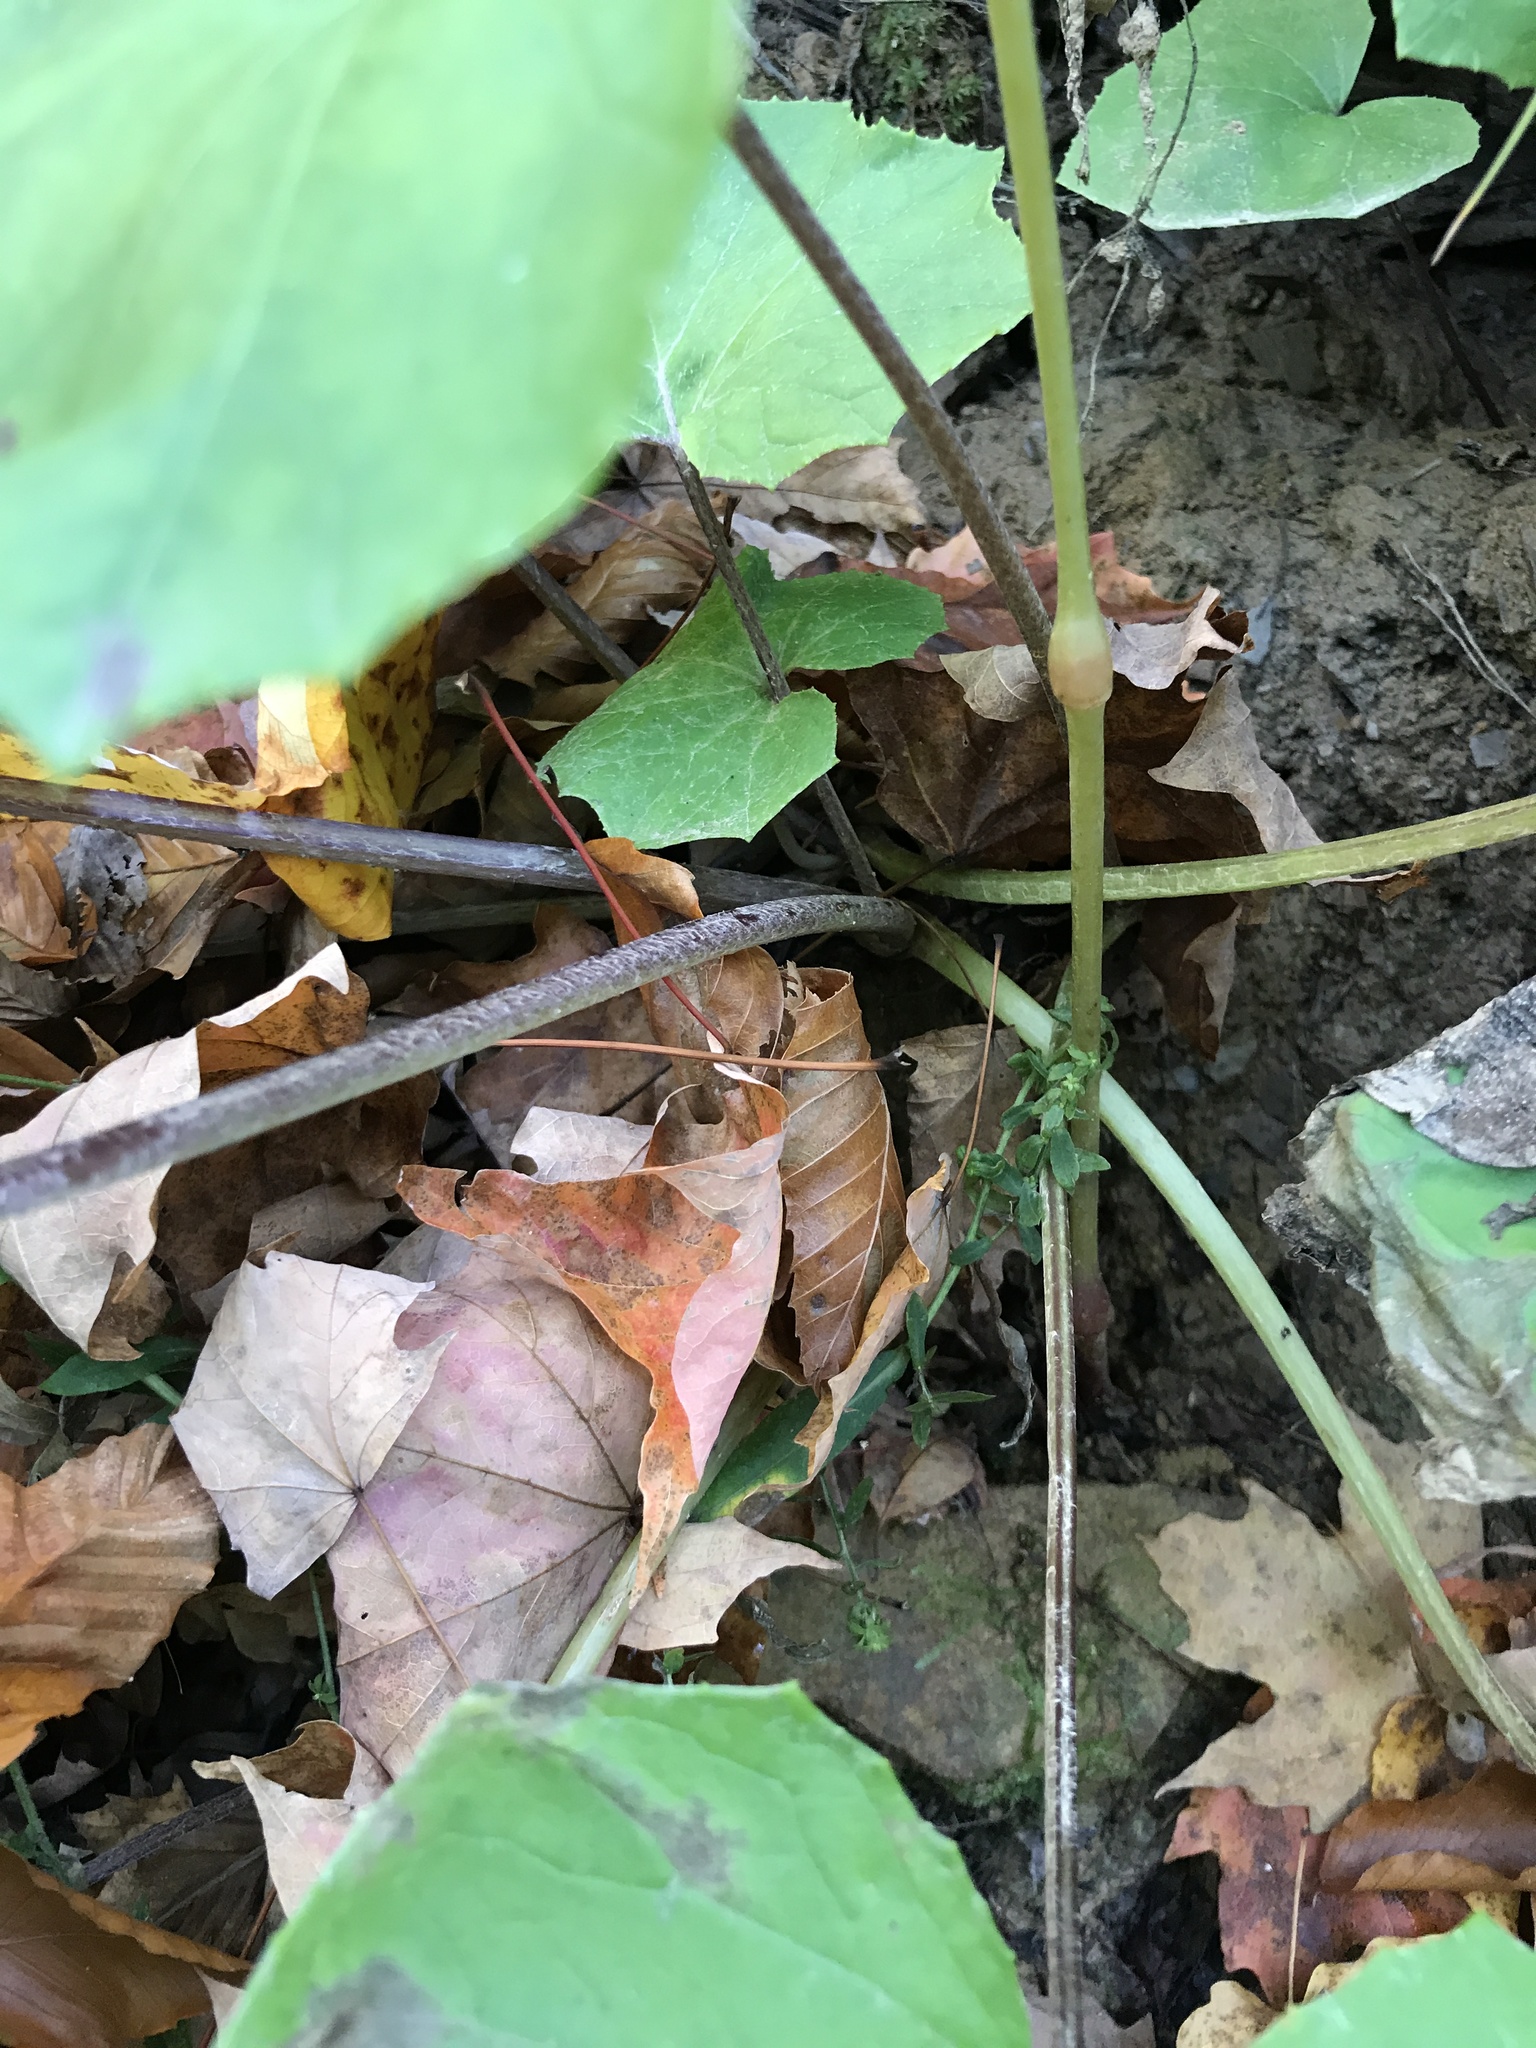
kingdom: Plantae
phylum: Tracheophyta
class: Magnoliopsida
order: Asterales
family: Asteraceae
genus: Tussilago
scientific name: Tussilago farfara
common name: Coltsfoot
